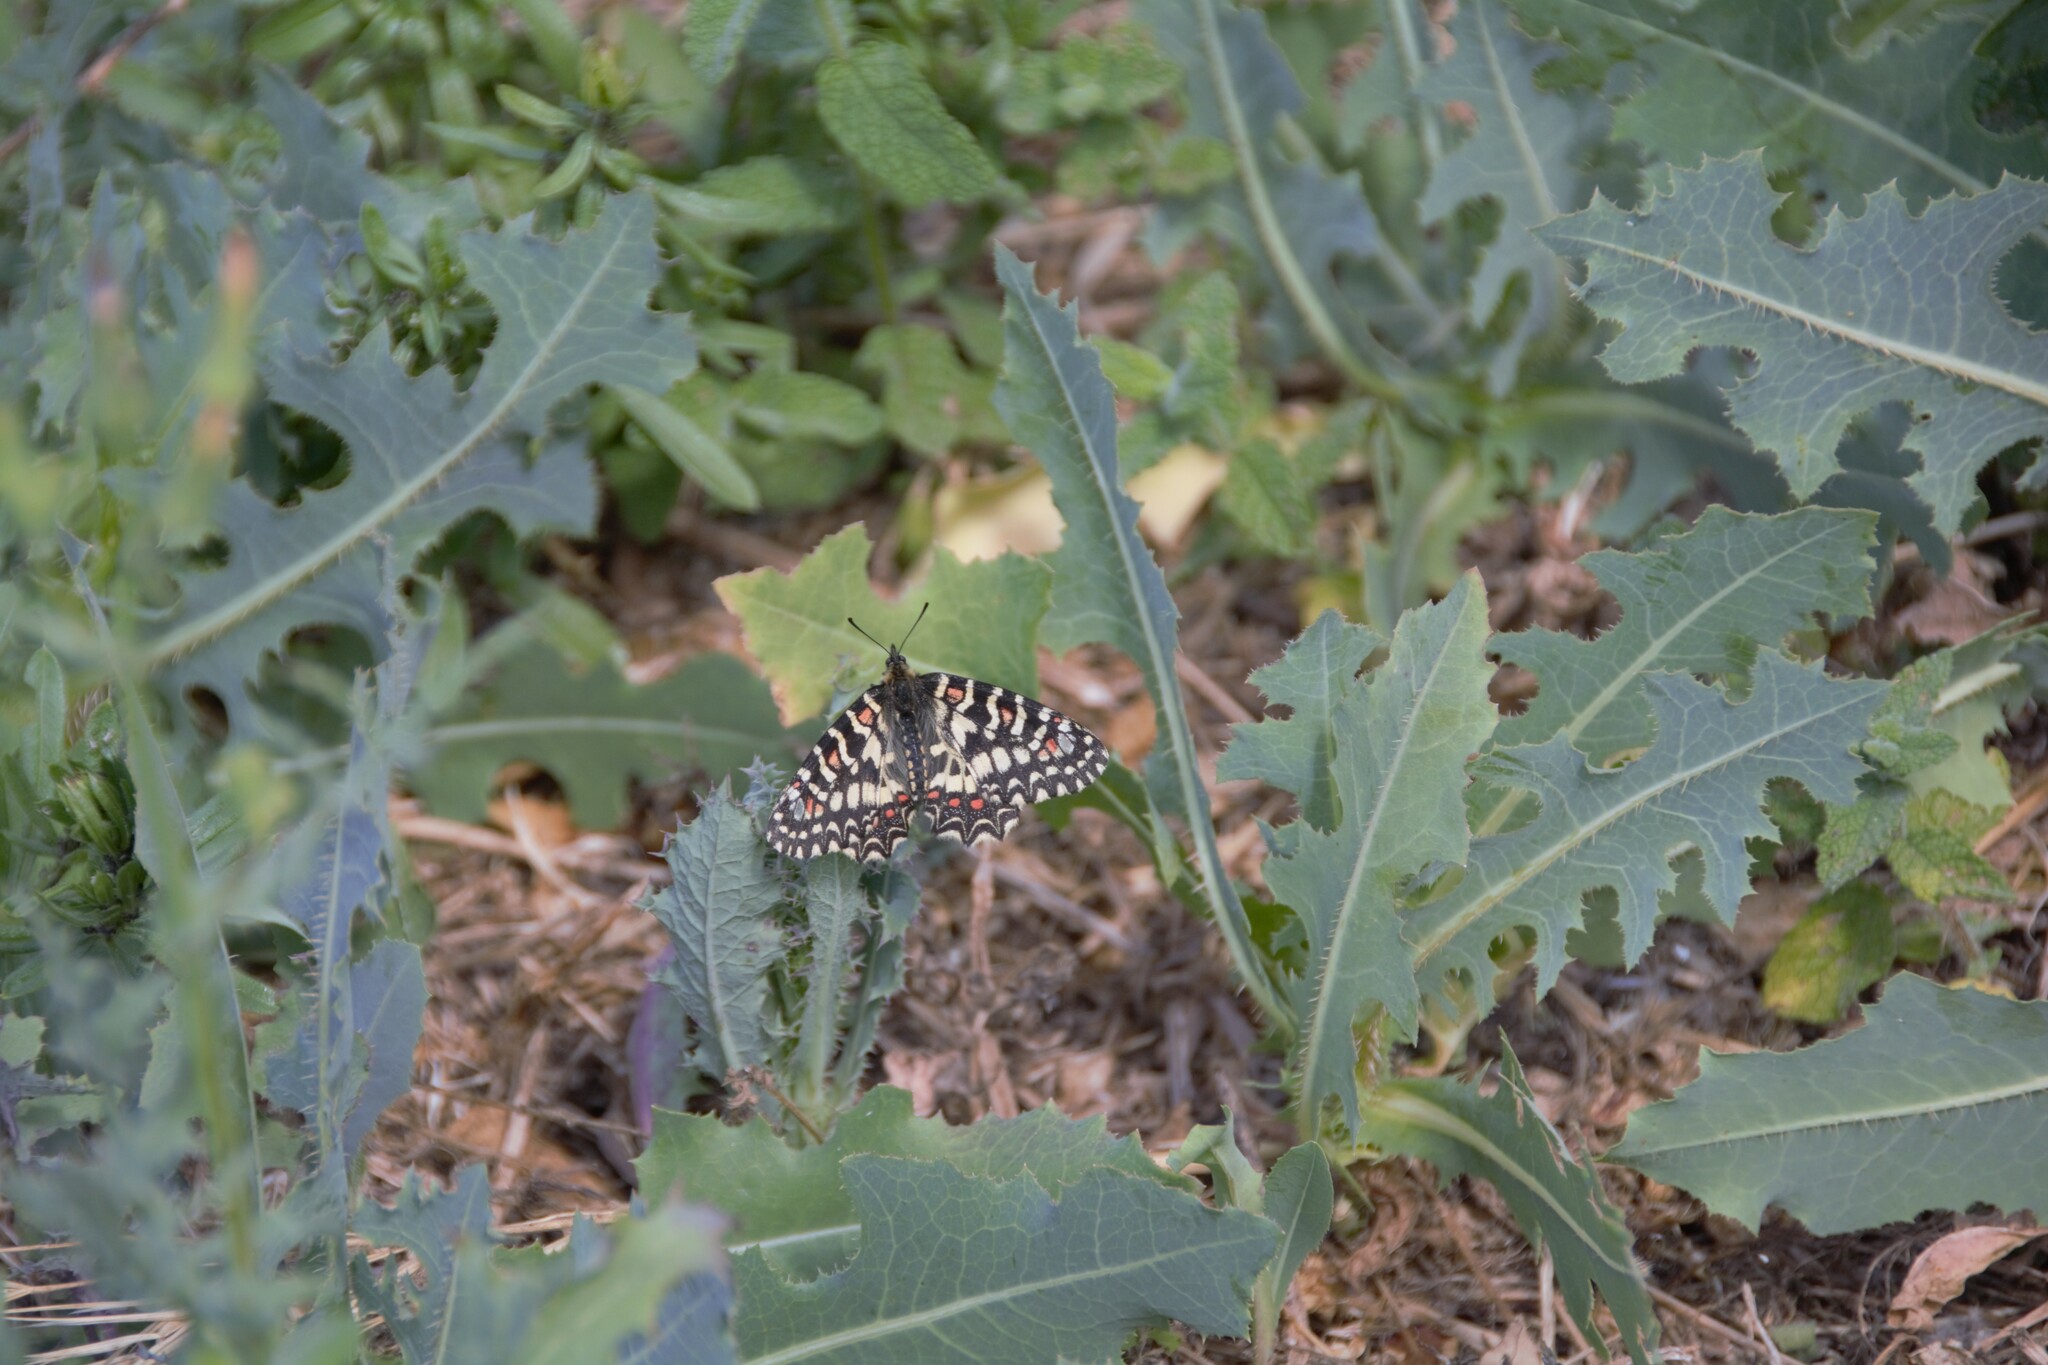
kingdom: Animalia
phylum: Arthropoda
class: Insecta
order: Lepidoptera
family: Papilionidae
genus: Zerynthia
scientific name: Zerynthia rumina
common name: Spanish festoon
